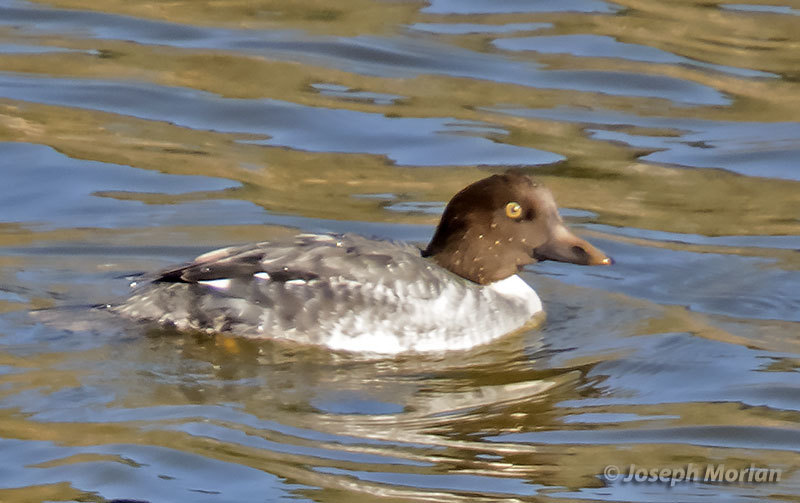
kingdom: Animalia
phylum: Chordata
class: Aves
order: Anseriformes
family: Anatidae
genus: Bucephala
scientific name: Bucephala clangula
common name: Common goldeneye
